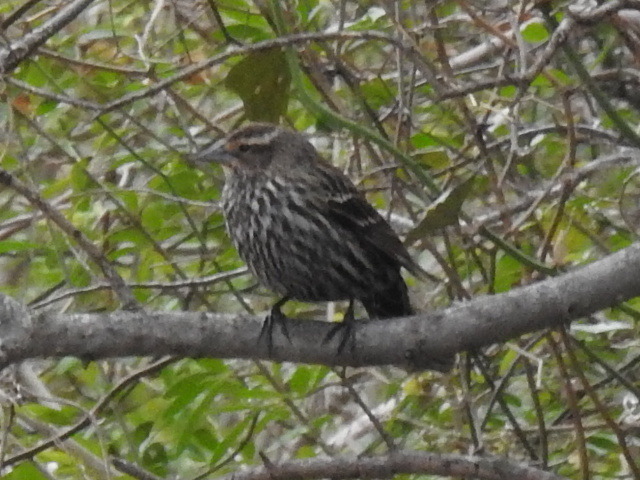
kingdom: Animalia
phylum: Chordata
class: Aves
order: Passeriformes
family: Icteridae
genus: Agelaius
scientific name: Agelaius phoeniceus
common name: Red-winged blackbird
